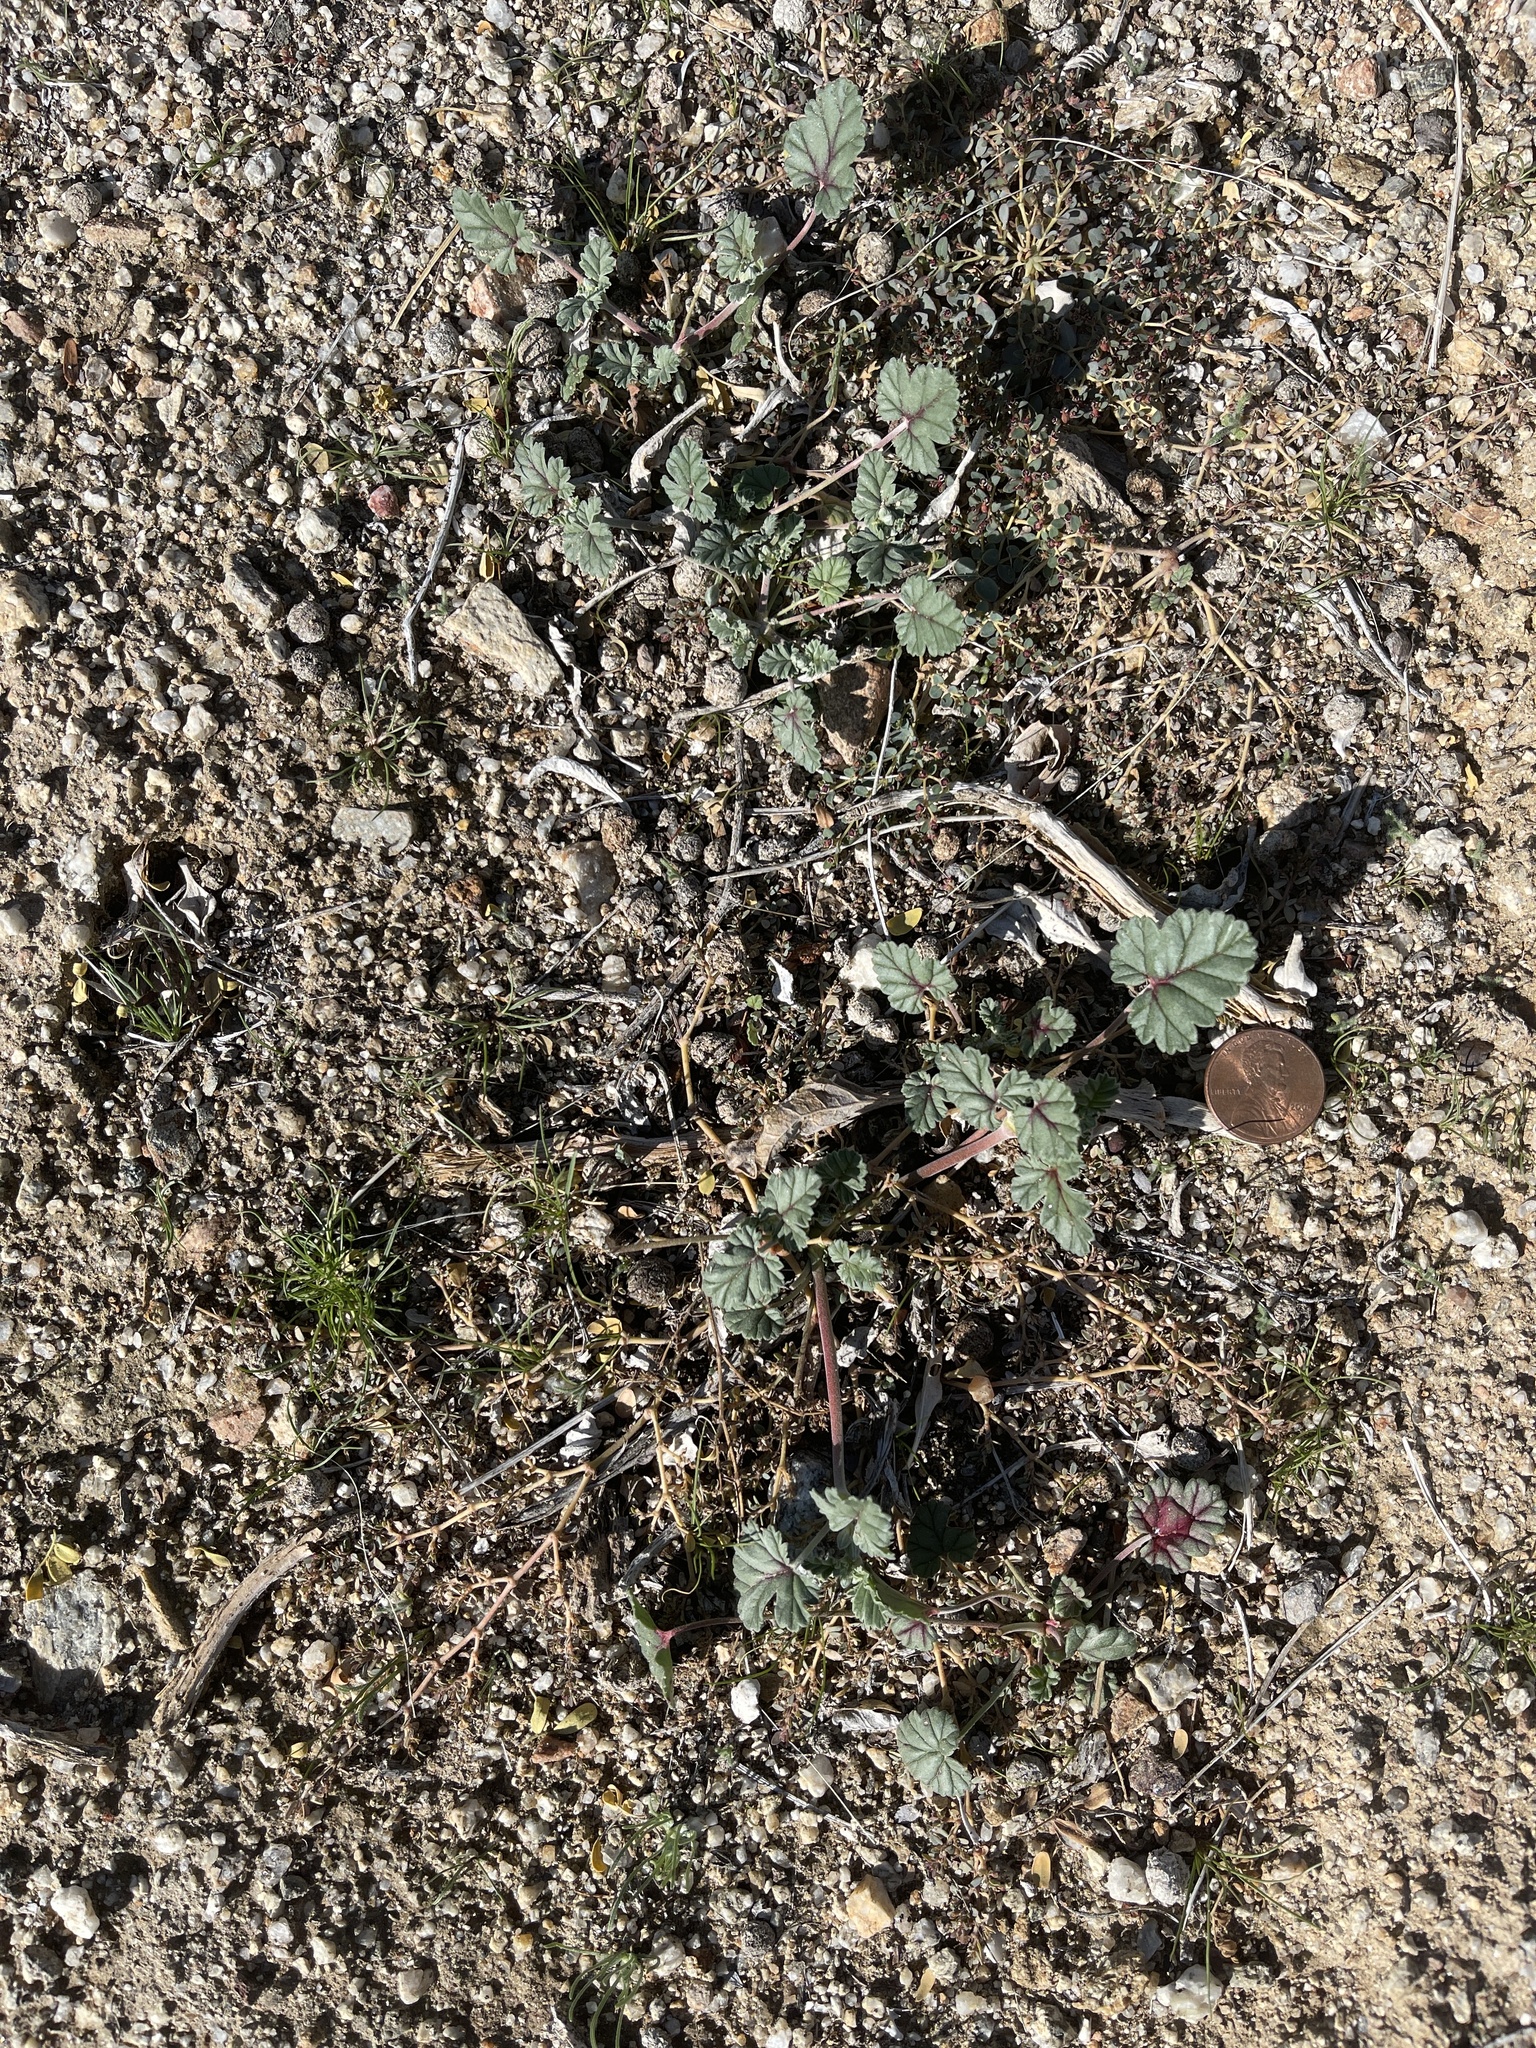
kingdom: Plantae
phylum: Tracheophyta
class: Magnoliopsida
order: Geraniales
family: Geraniaceae
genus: Erodium
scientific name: Erodium texanum
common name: Texas stork's-bill
